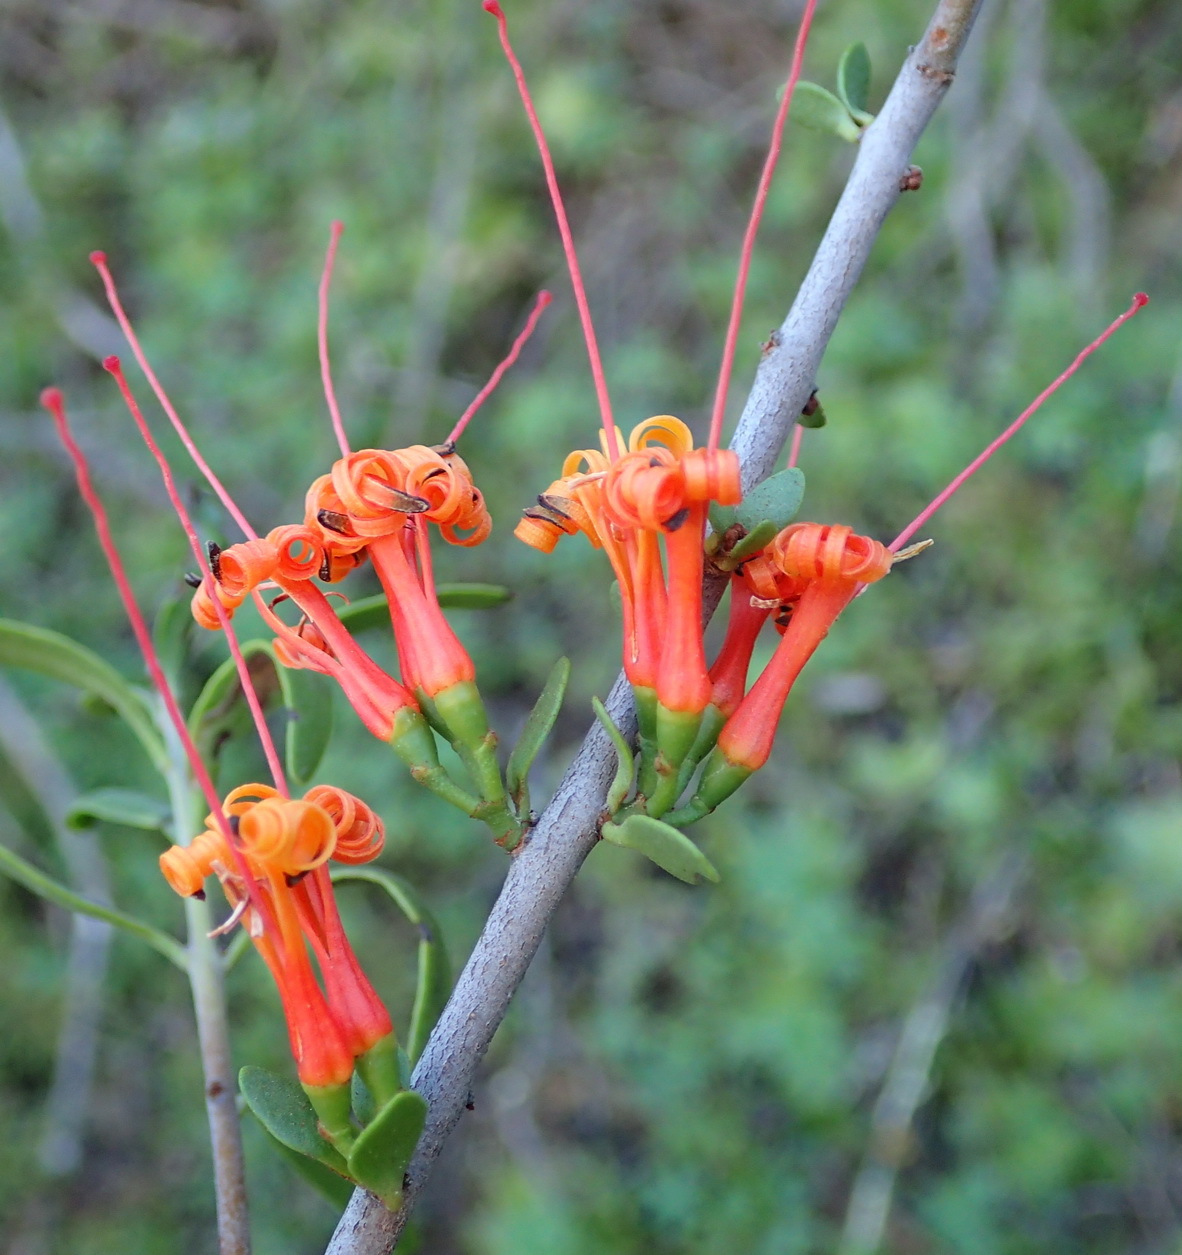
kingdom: Plantae
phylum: Tracheophyta
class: Magnoliopsida
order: Santalales
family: Loranthaceae
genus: Moquiniella
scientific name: Moquiniella rubra
